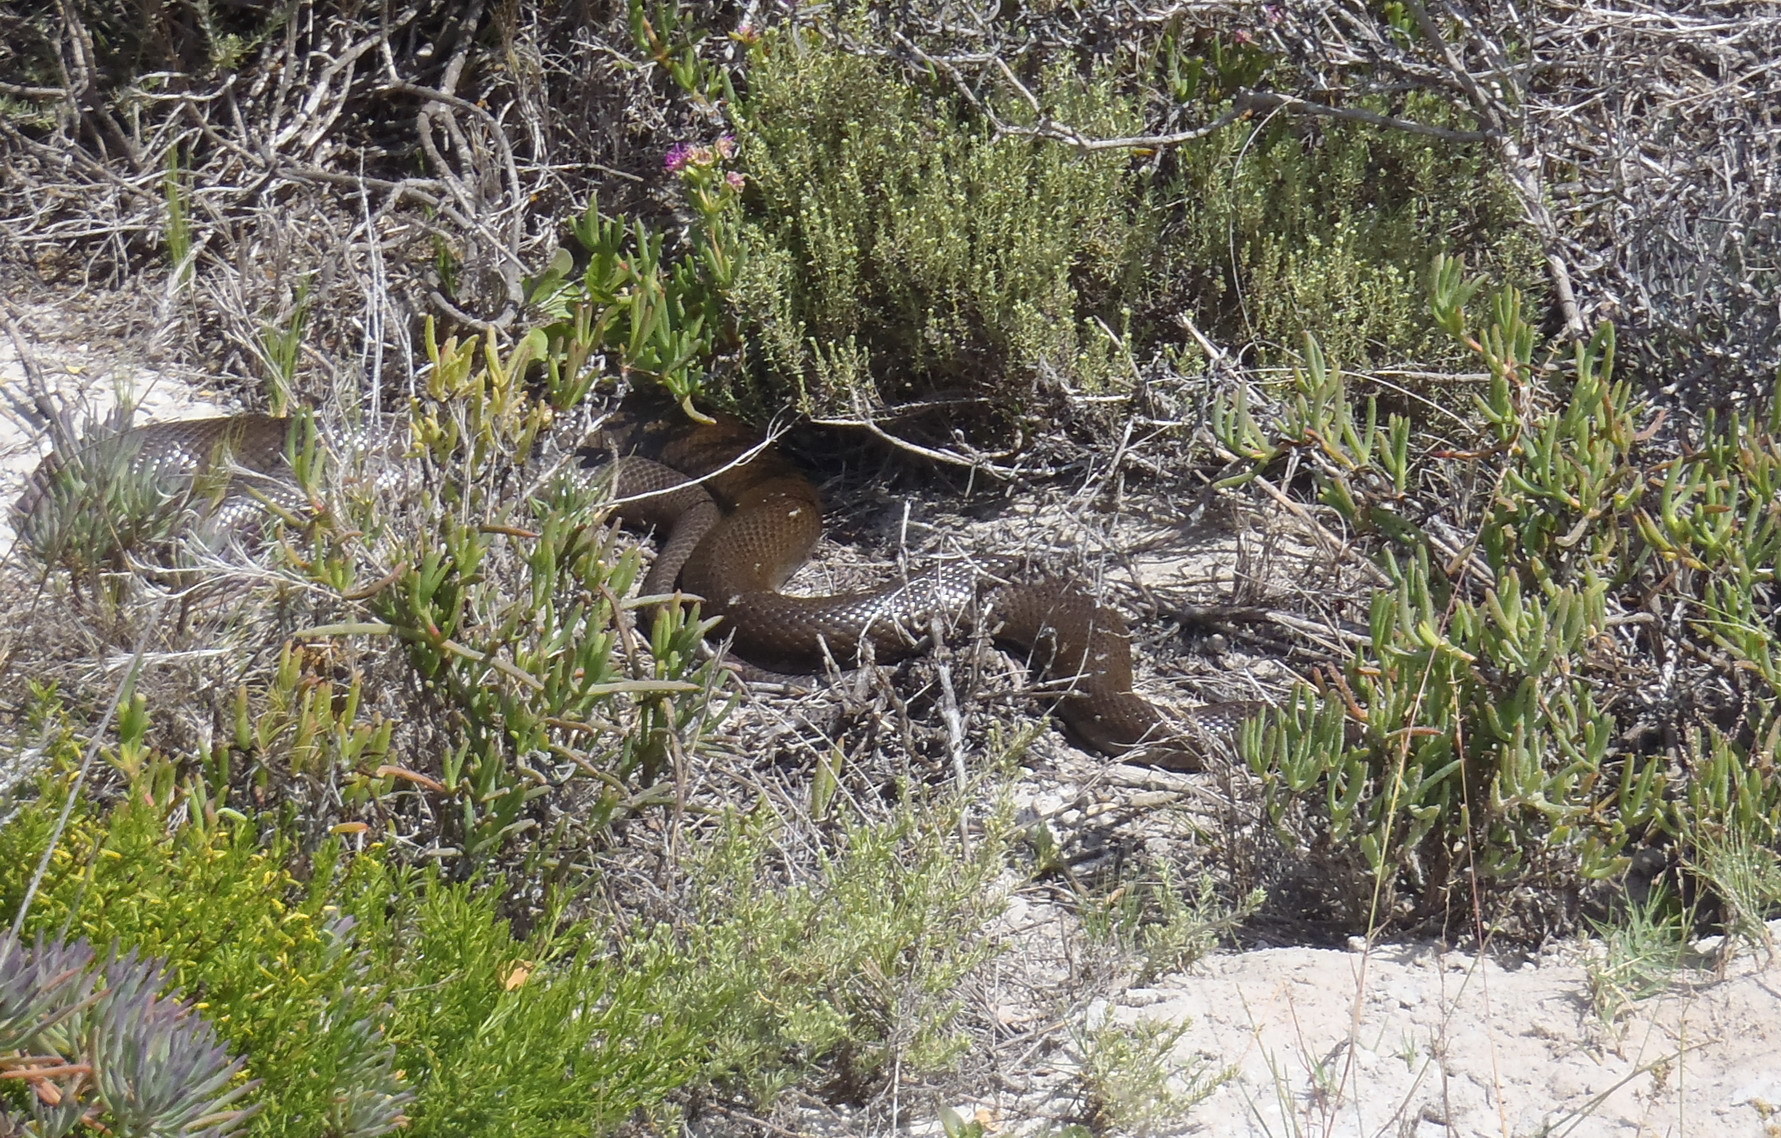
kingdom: Animalia
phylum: Chordata
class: Squamata
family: Pseudaspididae
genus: Pseudaspis
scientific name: Pseudaspis cana
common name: Mole snake
